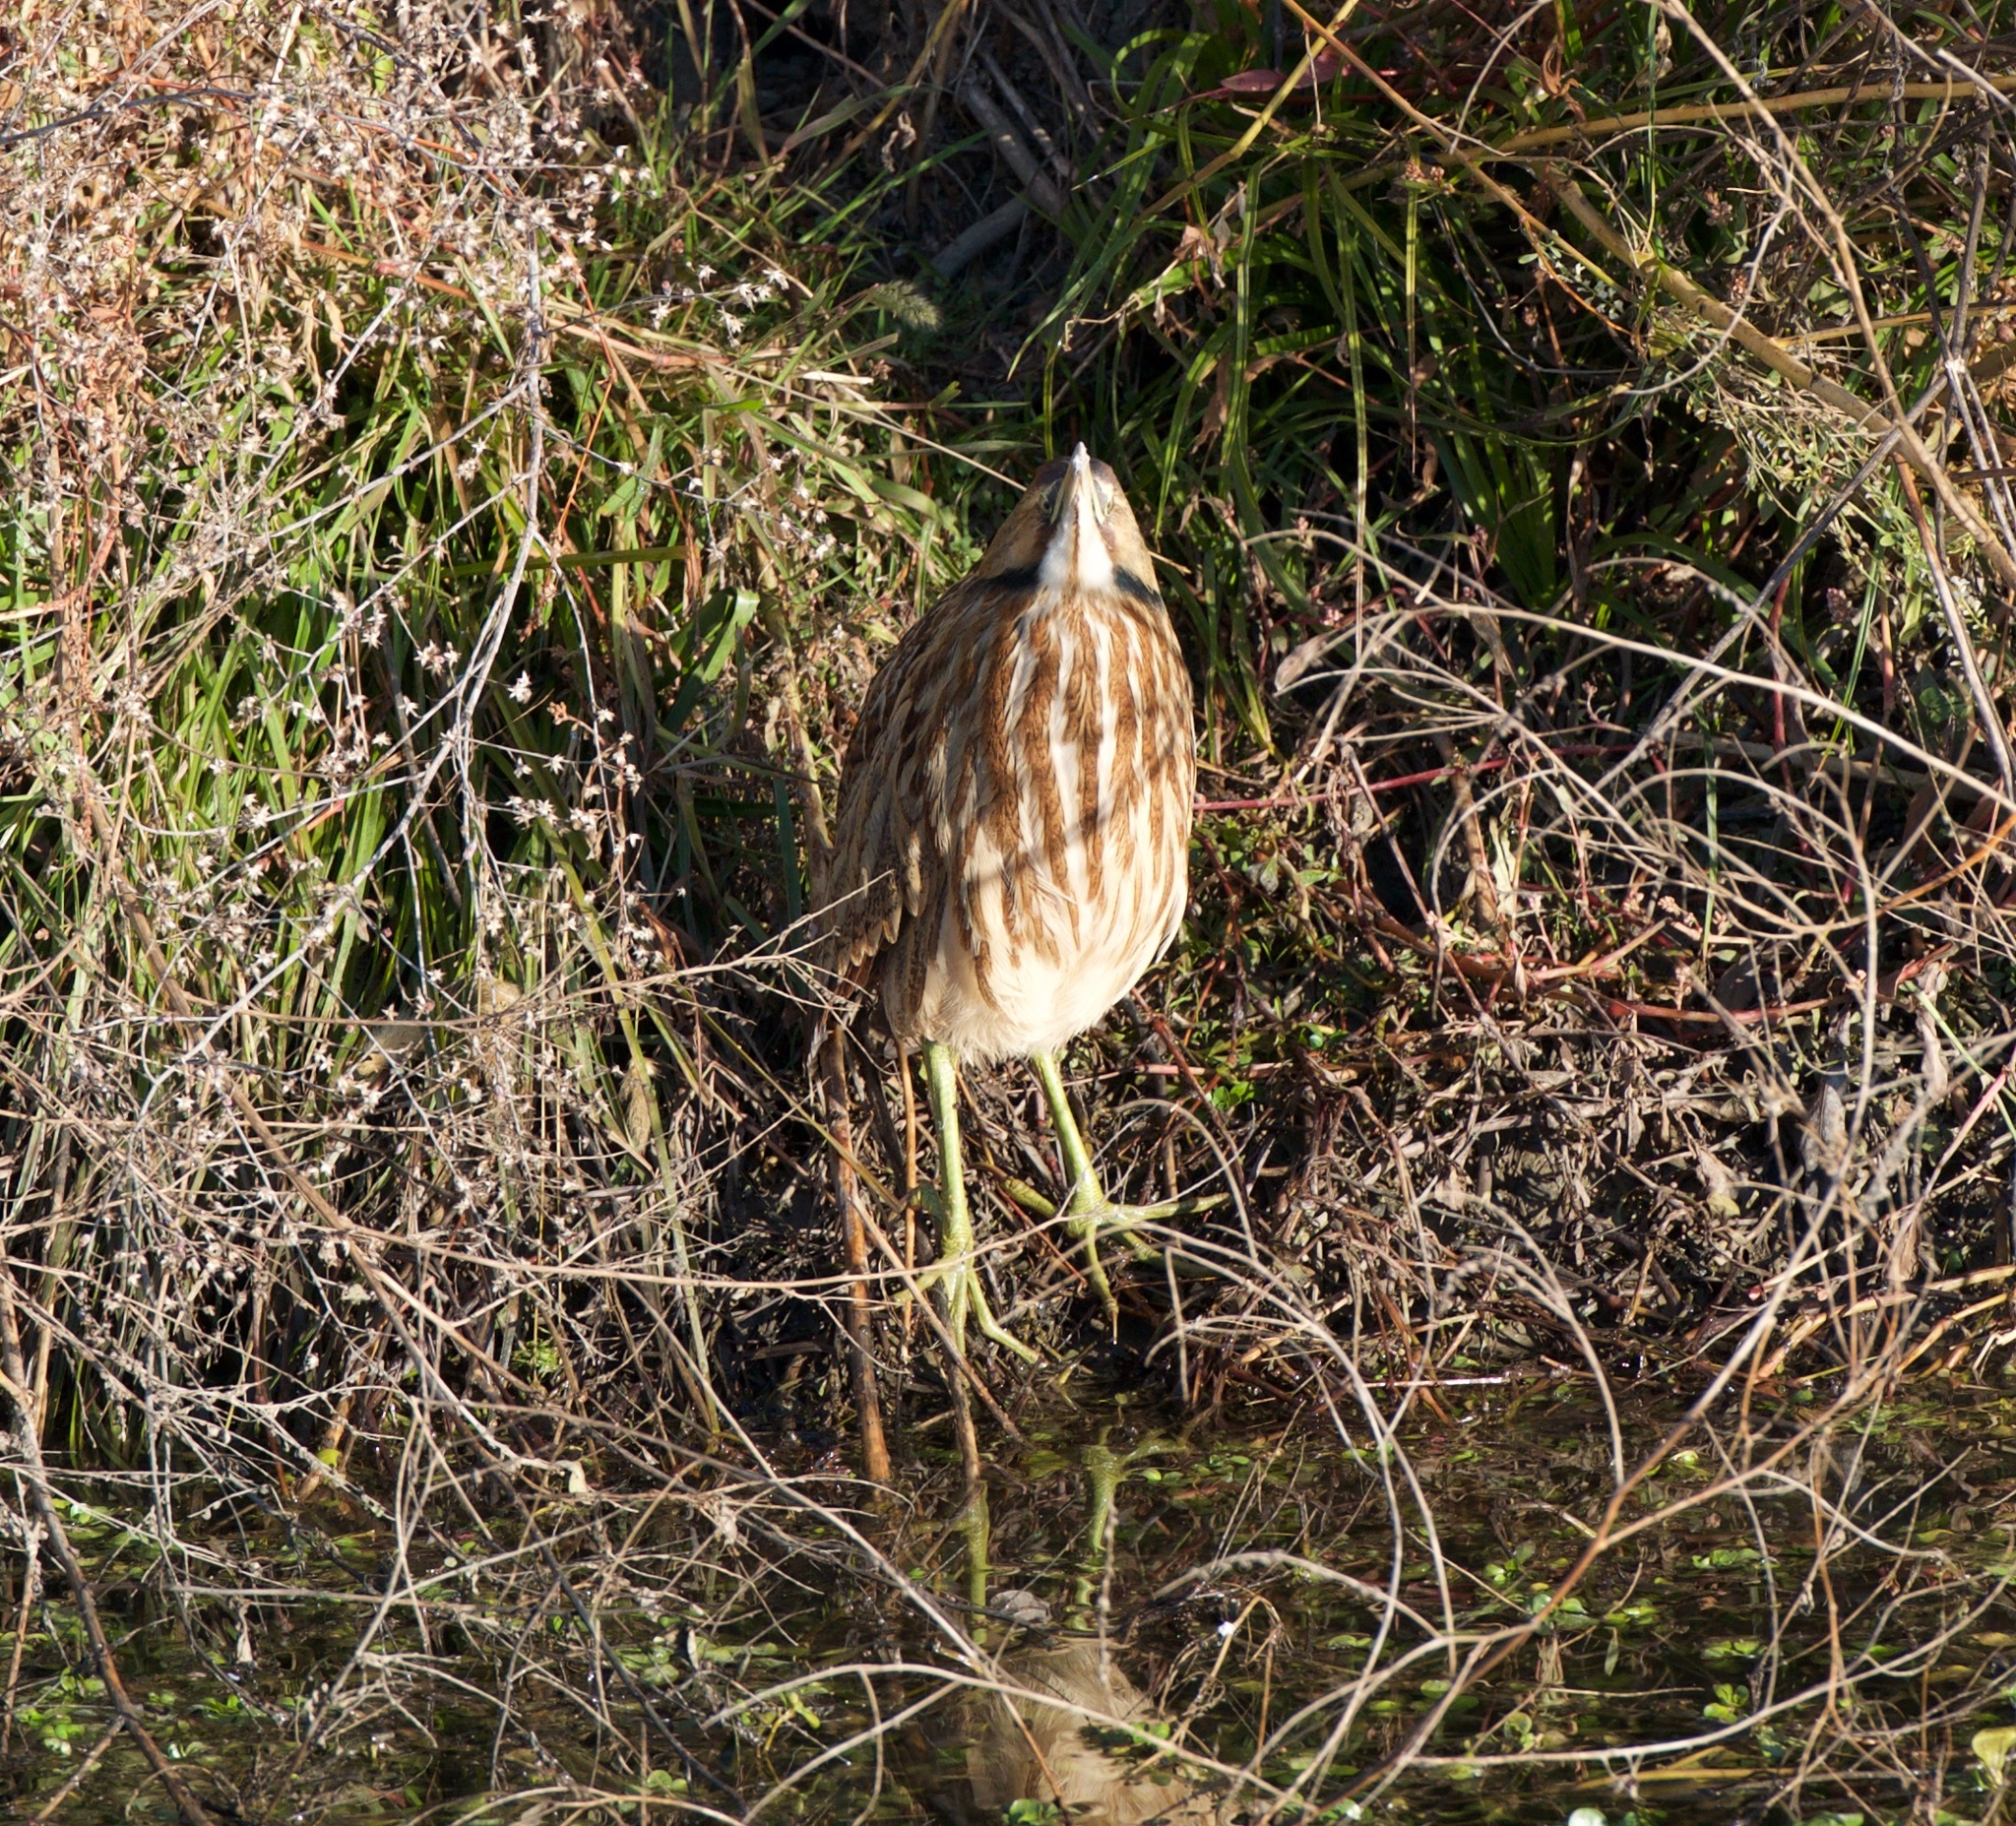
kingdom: Animalia
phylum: Chordata
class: Aves
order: Pelecaniformes
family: Ardeidae
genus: Botaurus
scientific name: Botaurus lentiginosus
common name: American bittern
